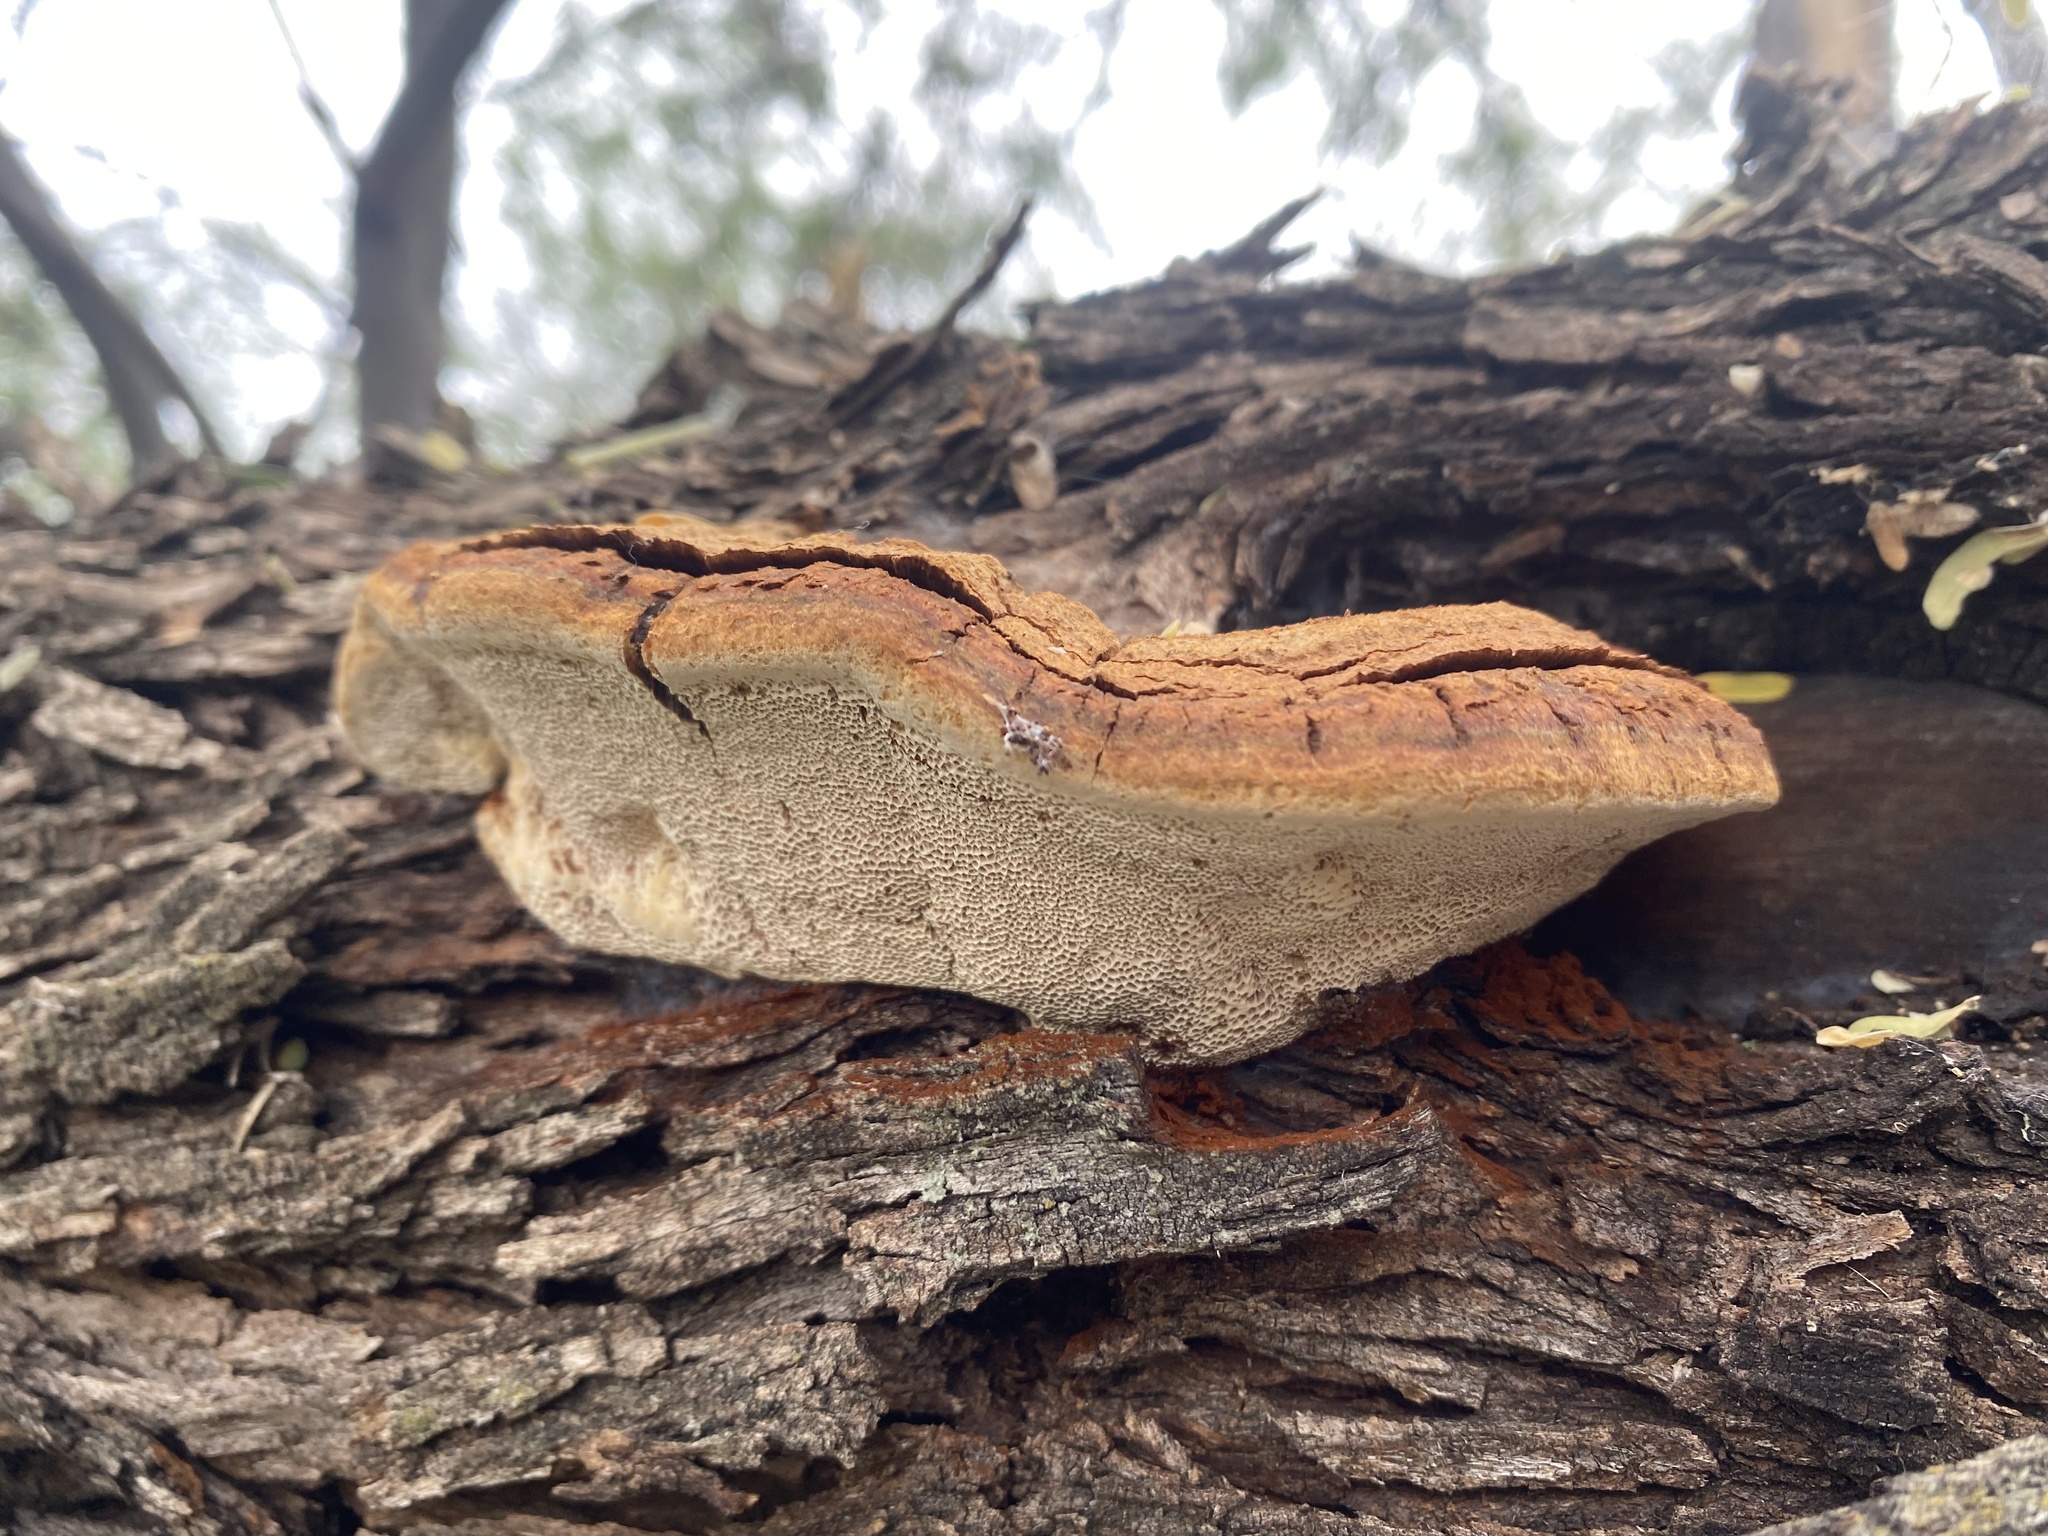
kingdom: Fungi
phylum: Basidiomycota
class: Agaricomycetes
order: Hymenochaetales
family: Hymenochaetaceae
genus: Inocutis
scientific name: Inocutis texana
